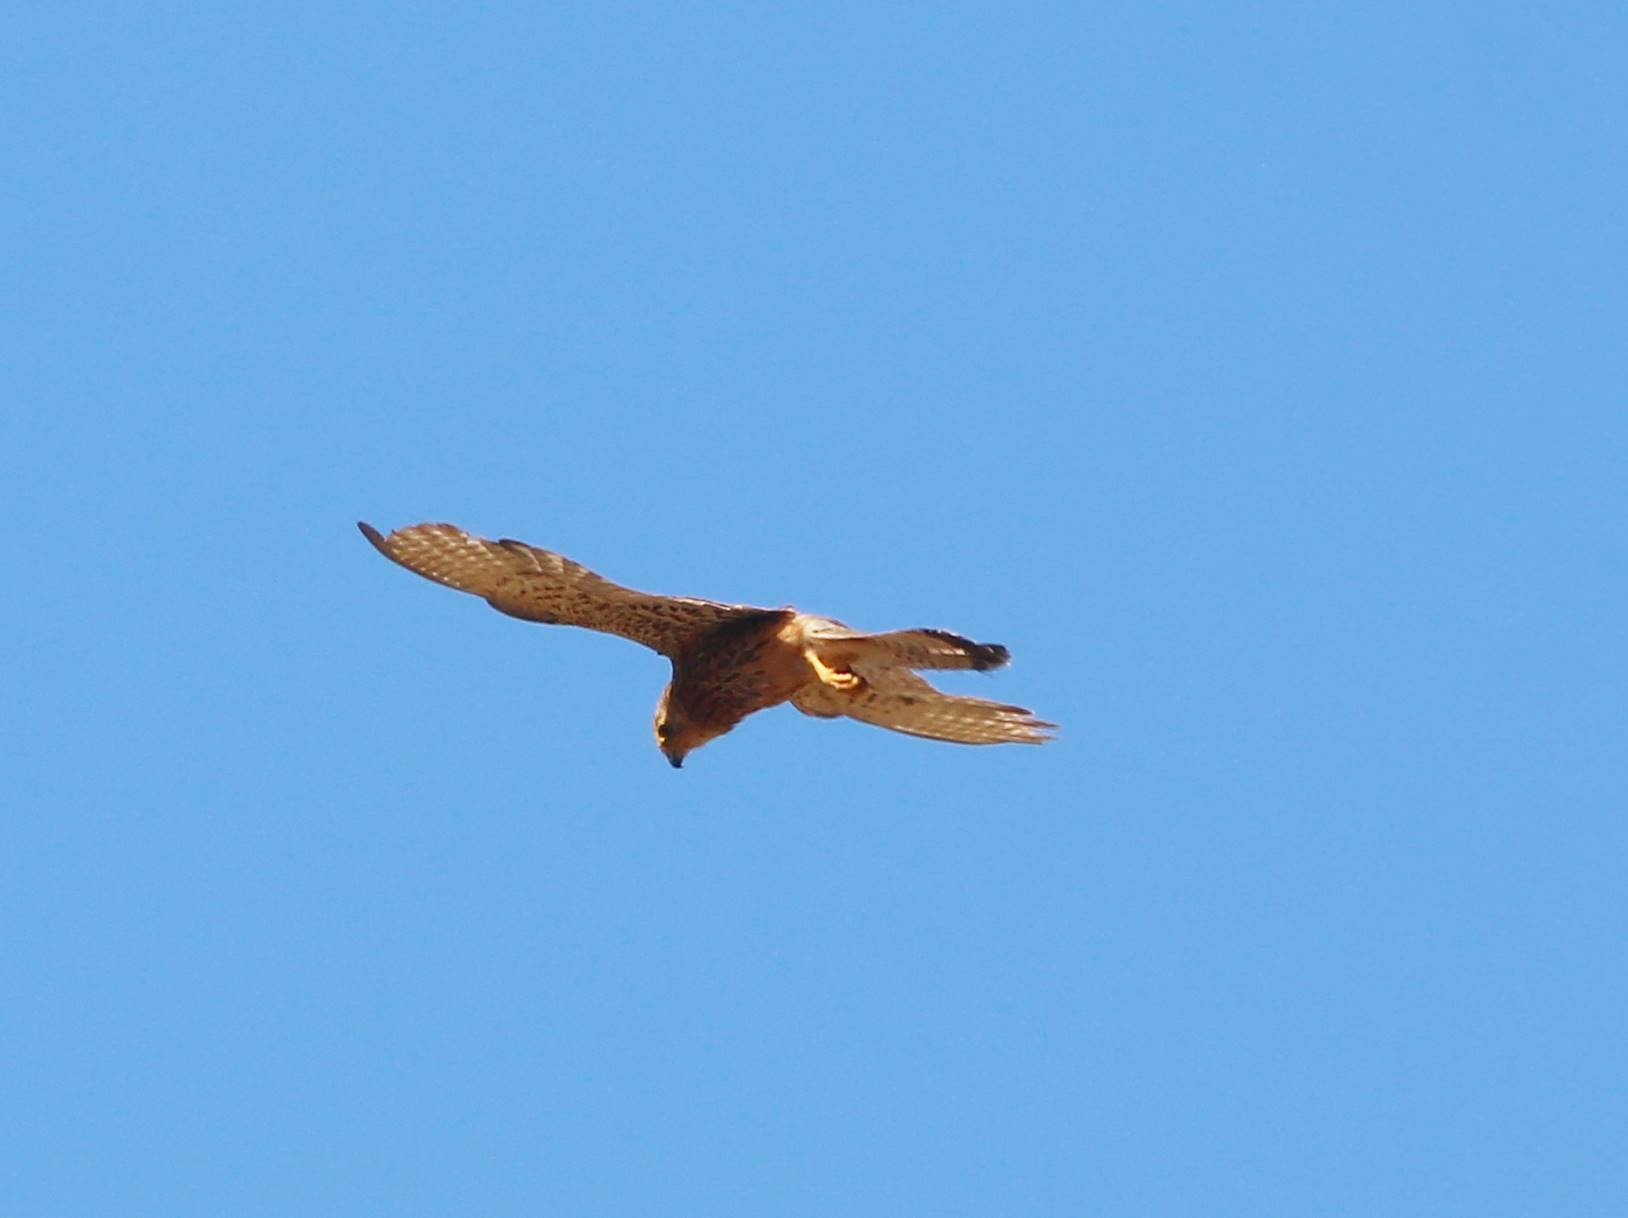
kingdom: Animalia
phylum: Chordata
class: Aves
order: Falconiformes
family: Falconidae
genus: Falco
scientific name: Falco tinnunculus
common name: Common kestrel
